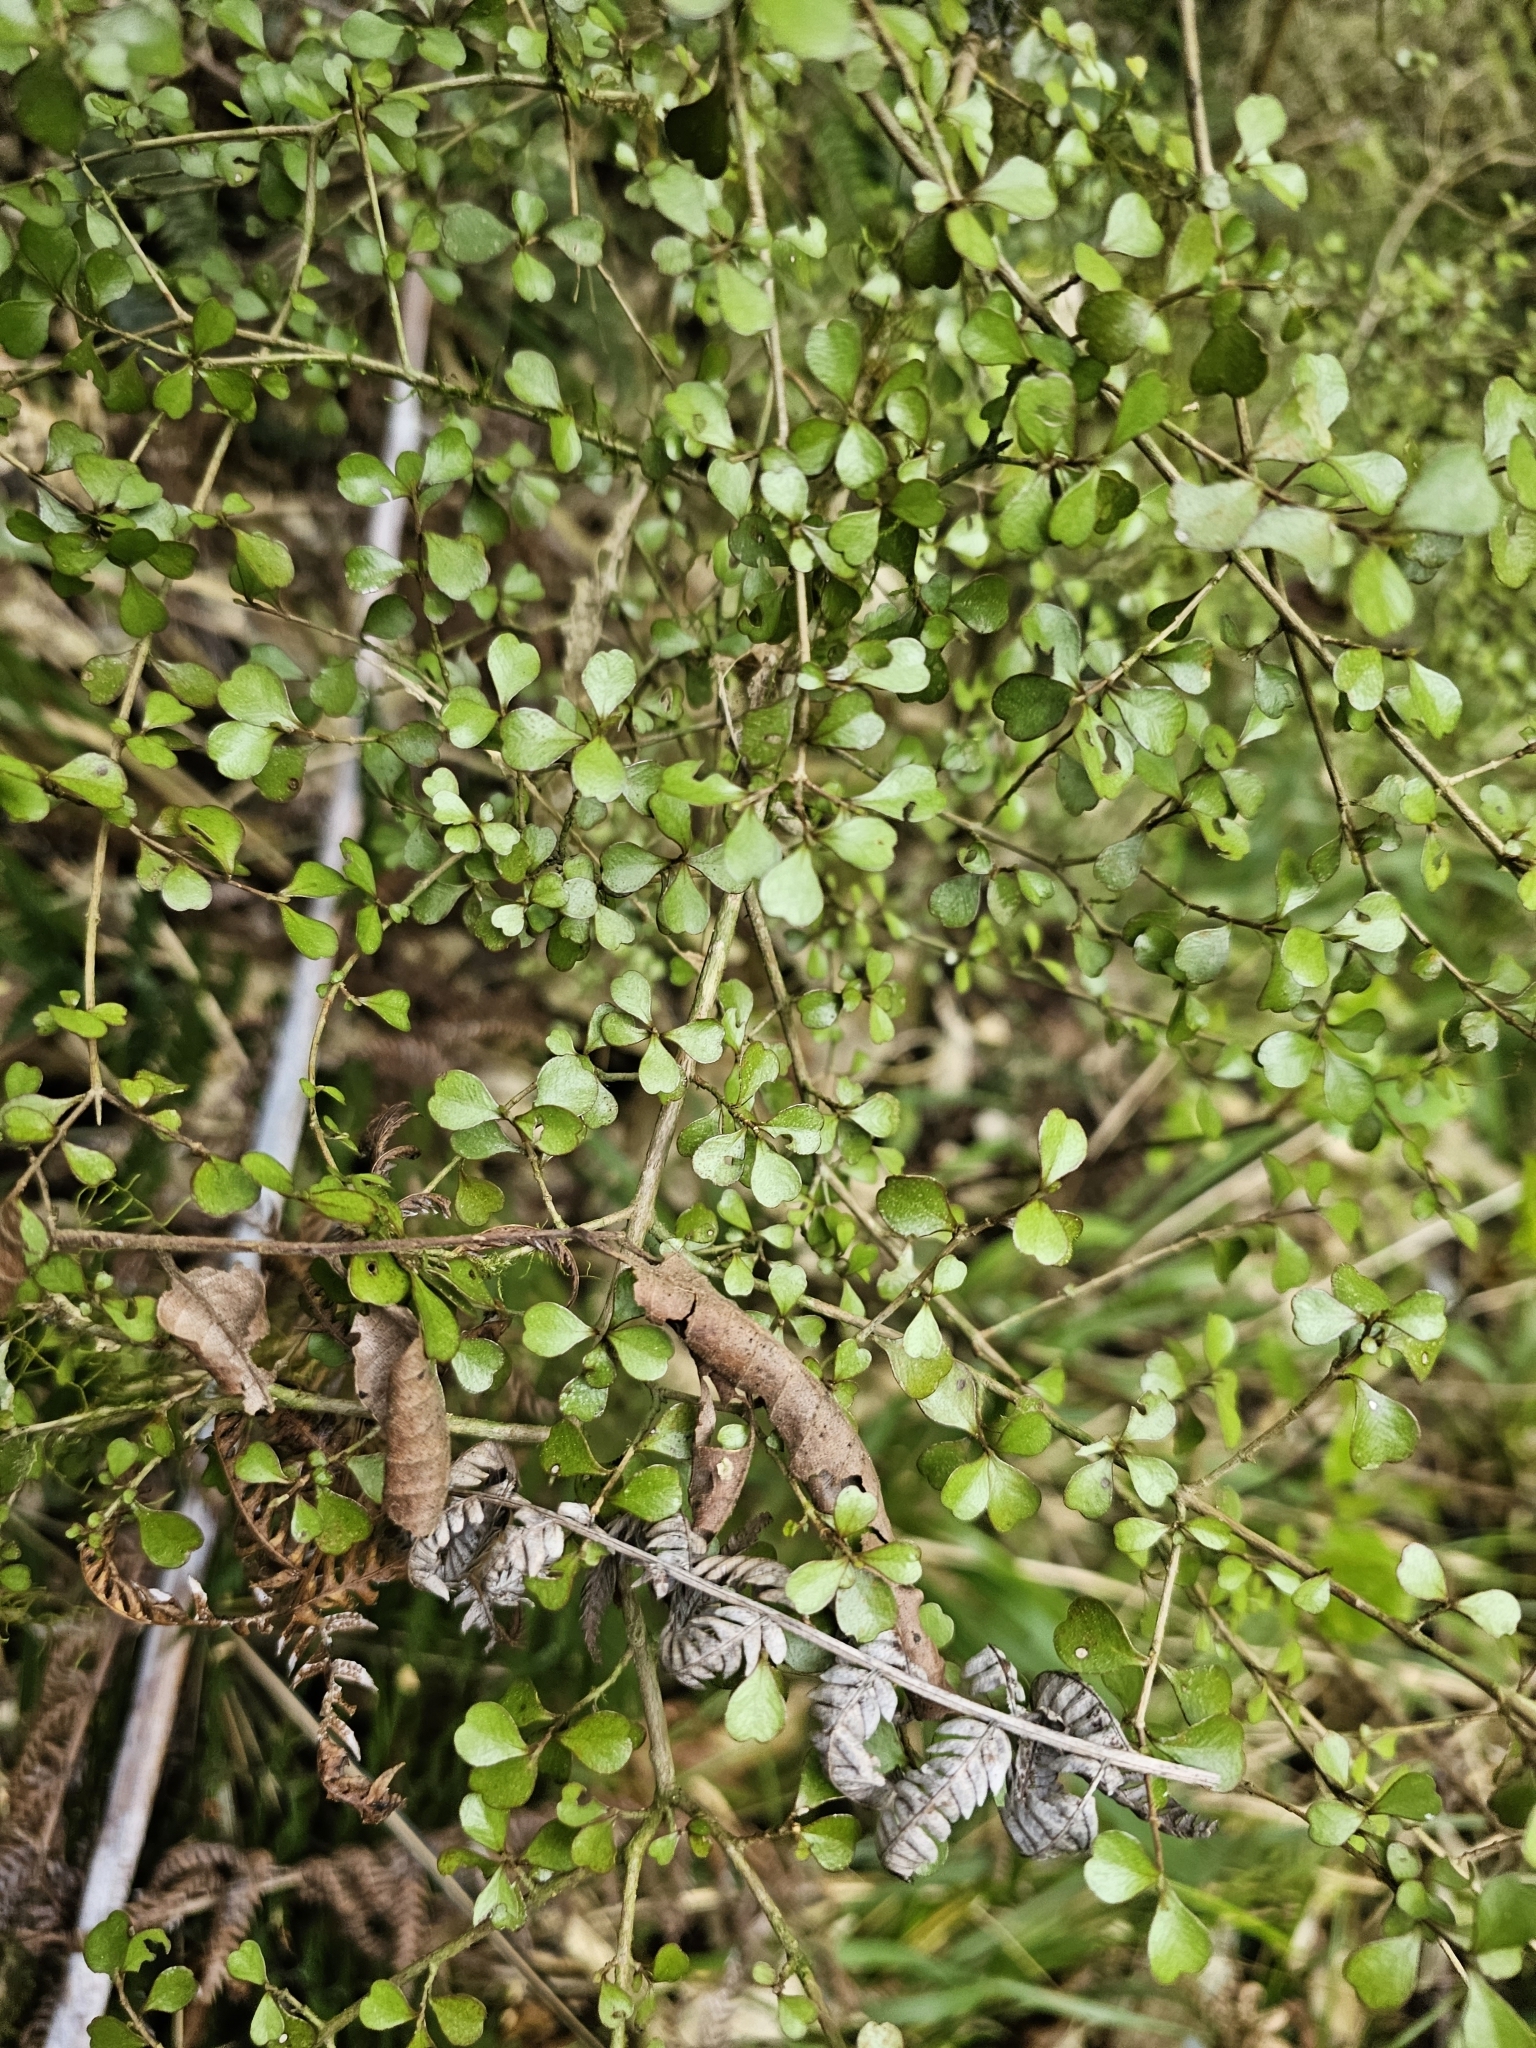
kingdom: Plantae
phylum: Tracheophyta
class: Magnoliopsida
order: Myrtales
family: Myrtaceae
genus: Lophomyrtus
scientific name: Lophomyrtus obcordata
